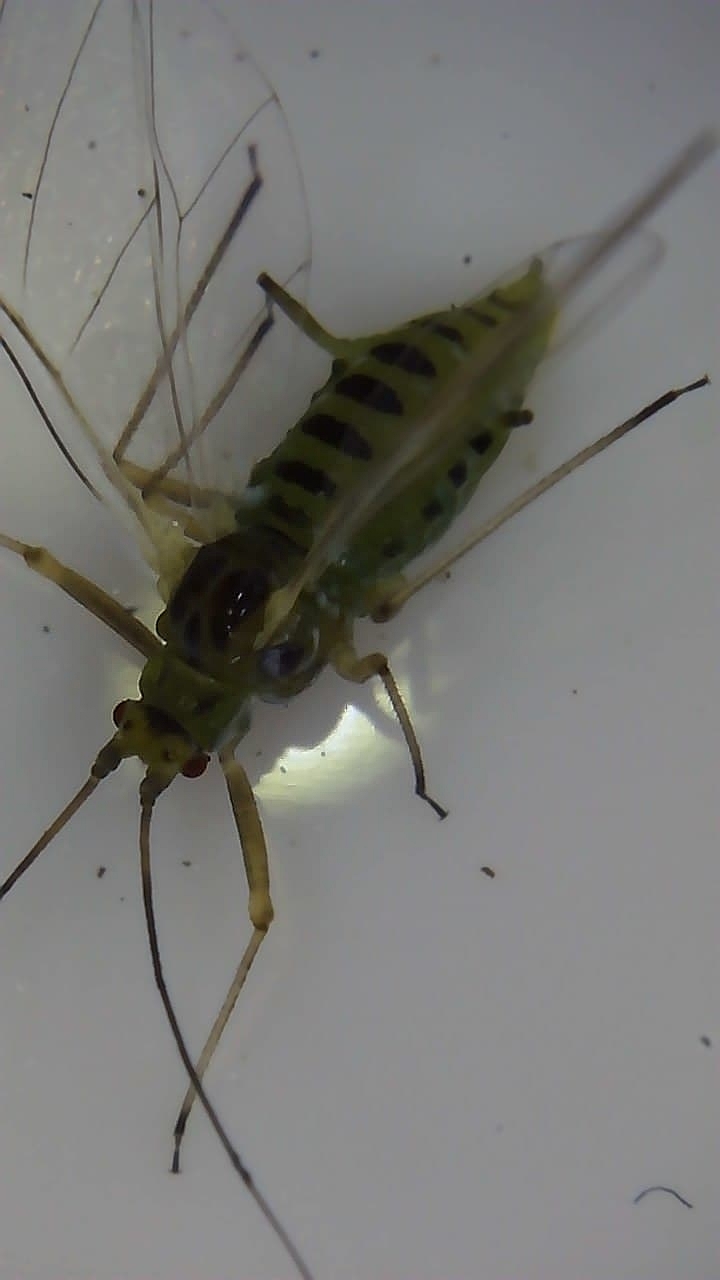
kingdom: Animalia
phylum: Arthropoda
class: Insecta
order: Hemiptera
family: Aphididae
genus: Drepanosiphum
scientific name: Drepanosiphum platanoidis
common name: Common sycamore aphid
